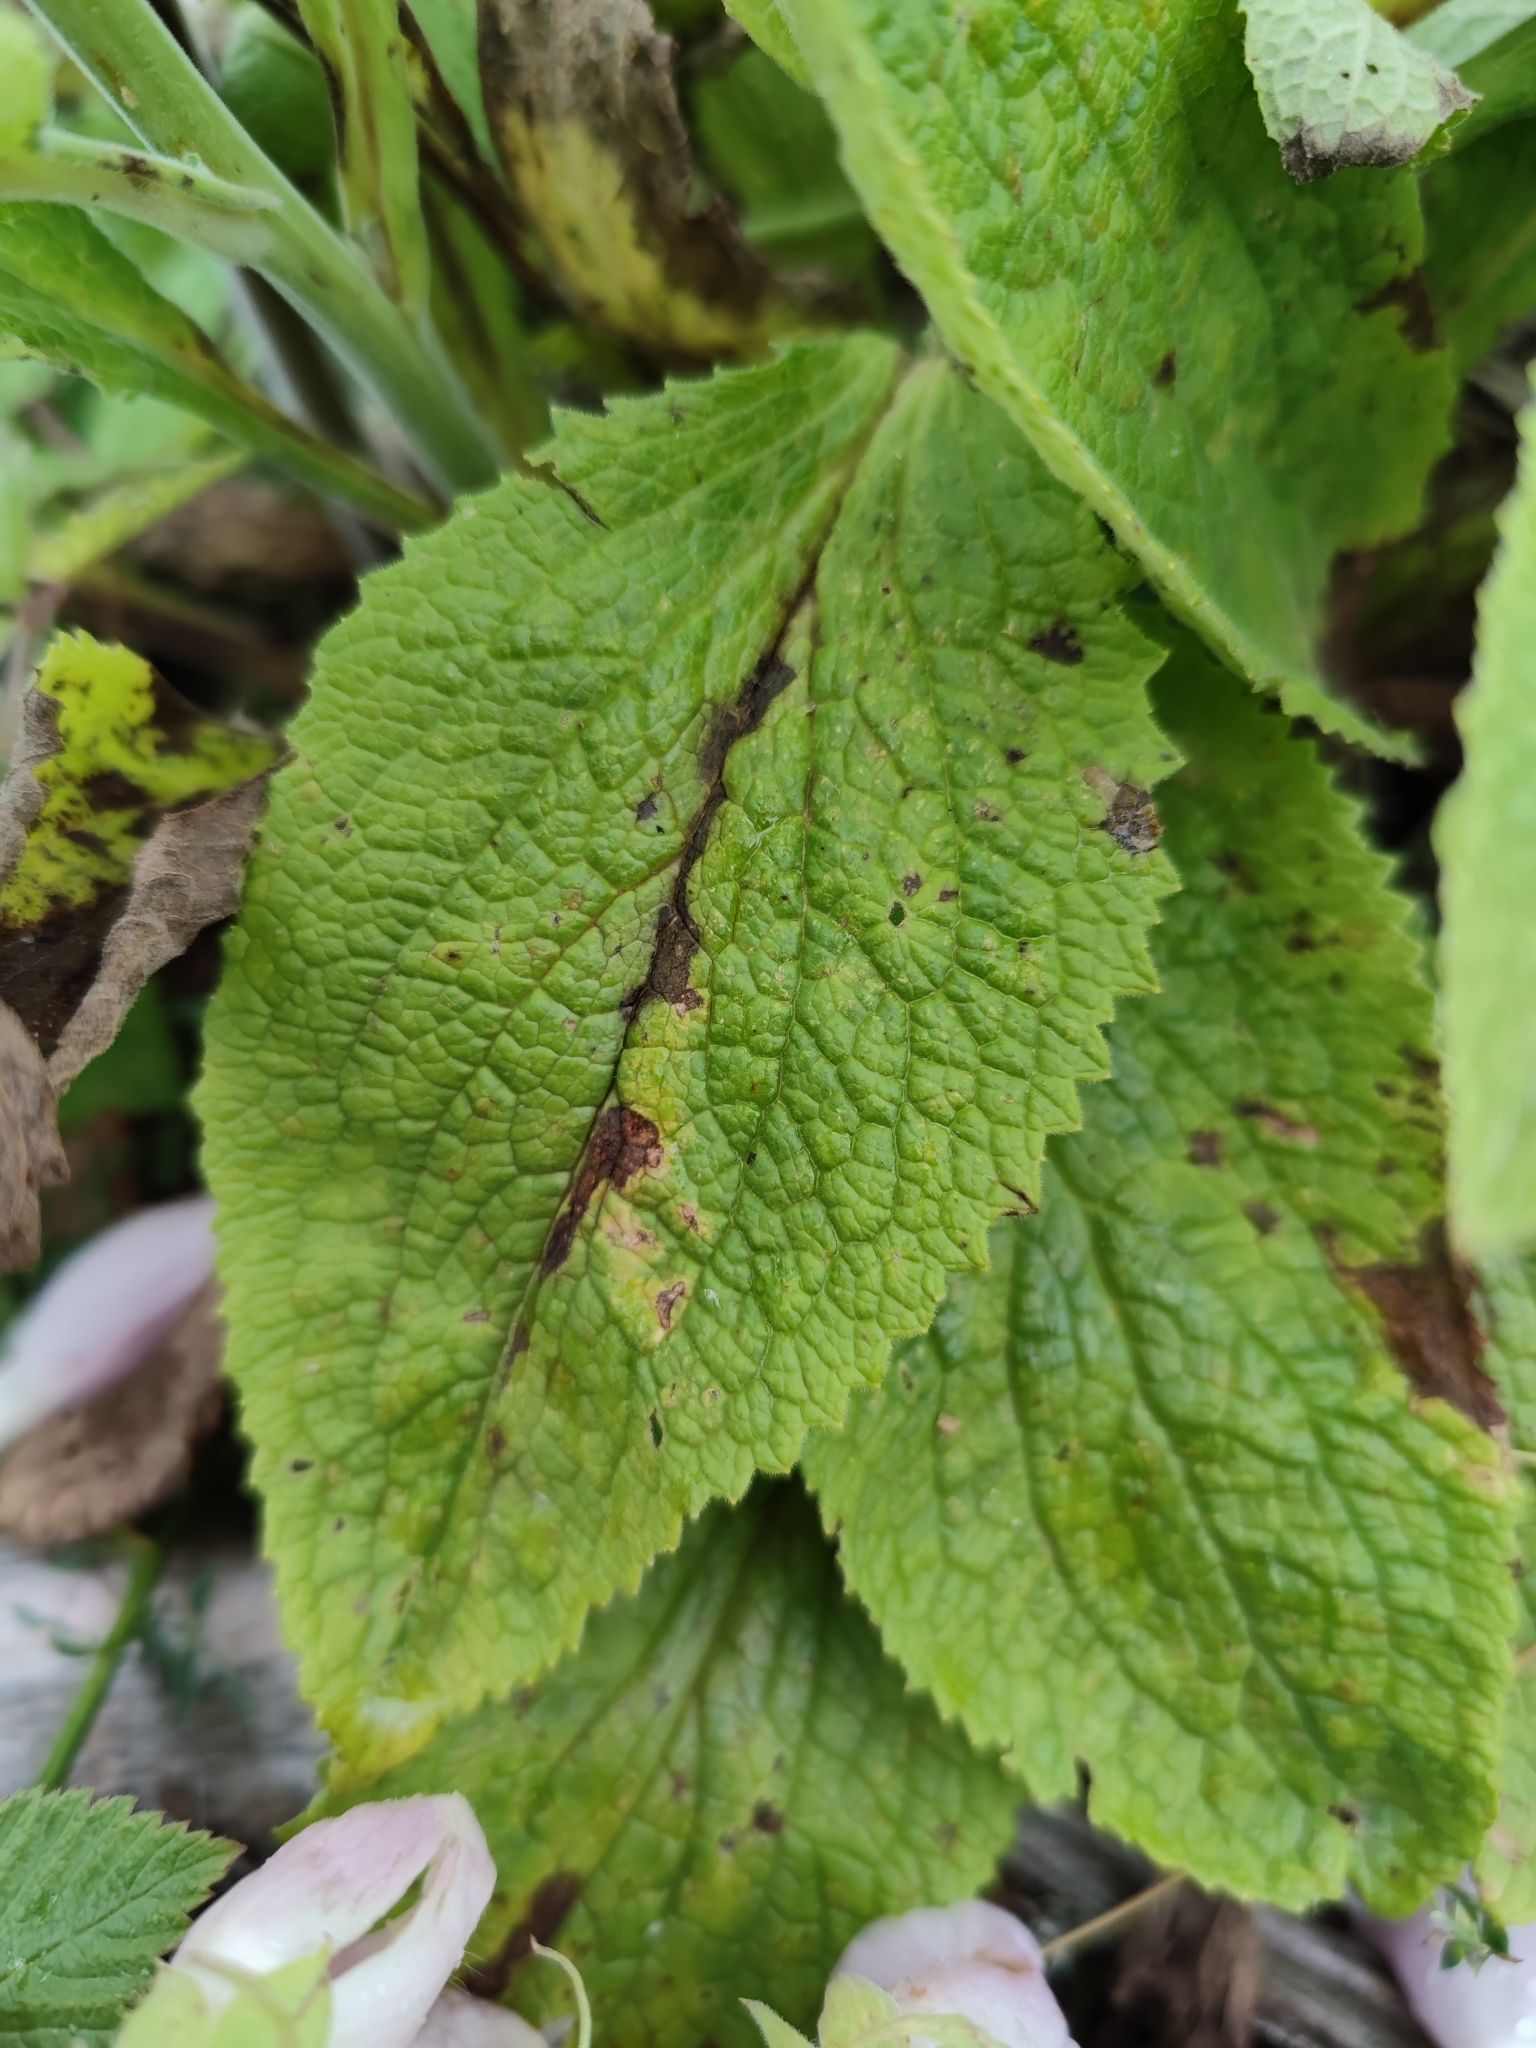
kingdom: Plantae
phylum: Tracheophyta
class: Magnoliopsida
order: Lamiales
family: Plantaginaceae
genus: Digitalis
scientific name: Digitalis purpurea
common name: Foxglove
